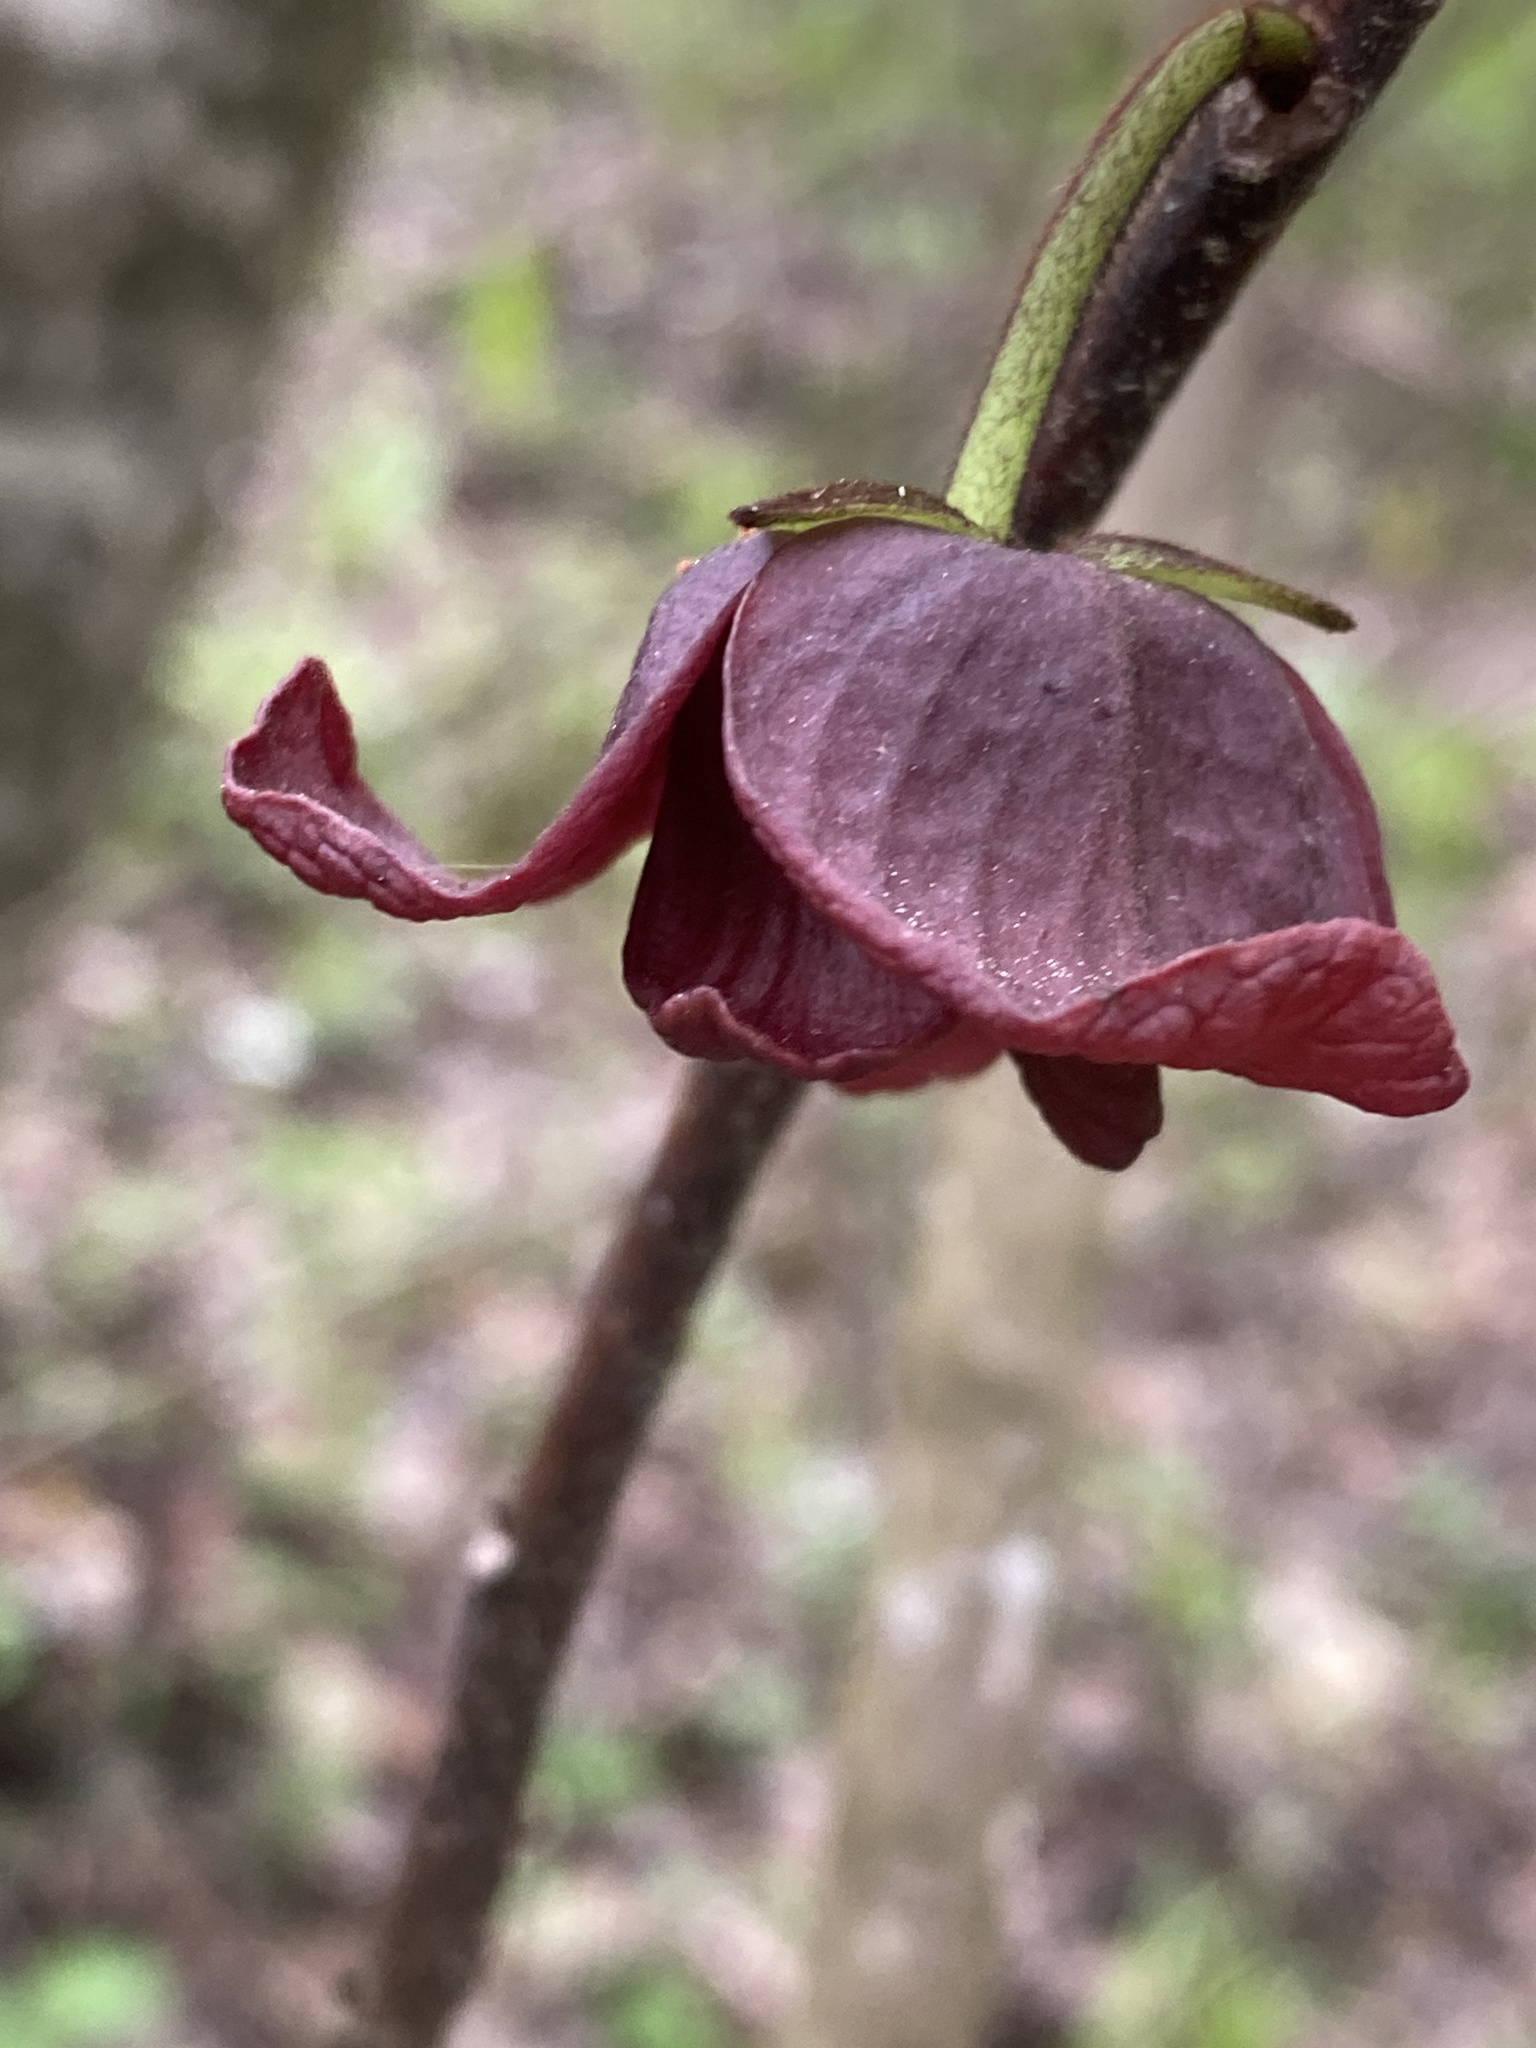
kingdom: Plantae
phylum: Tracheophyta
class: Magnoliopsida
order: Magnoliales
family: Annonaceae
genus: Asimina
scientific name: Asimina triloba
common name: Dog-banana
